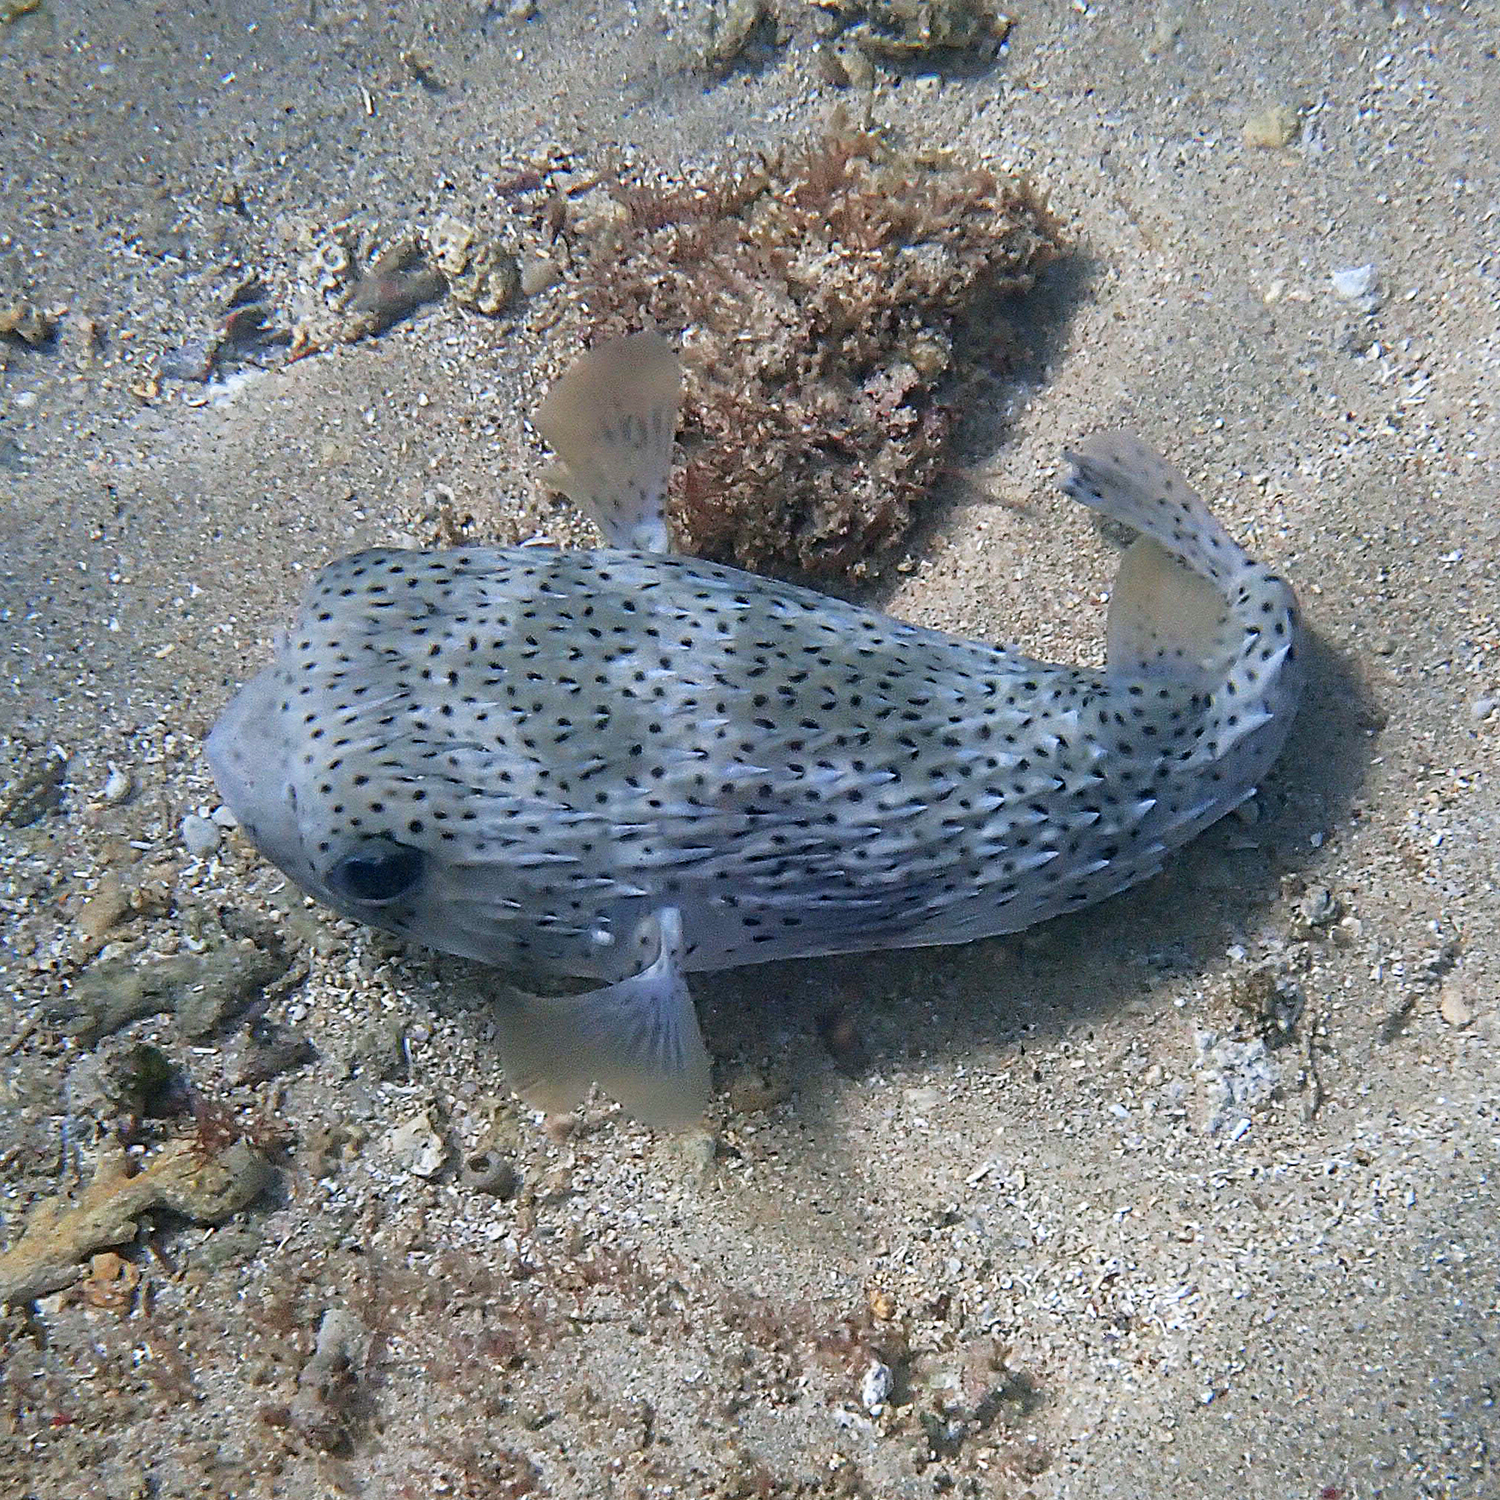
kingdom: Animalia
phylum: Chordata
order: Tetraodontiformes
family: Diodontidae
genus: Diodon
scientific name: Diodon hystrix
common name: Giant porcupinefish
